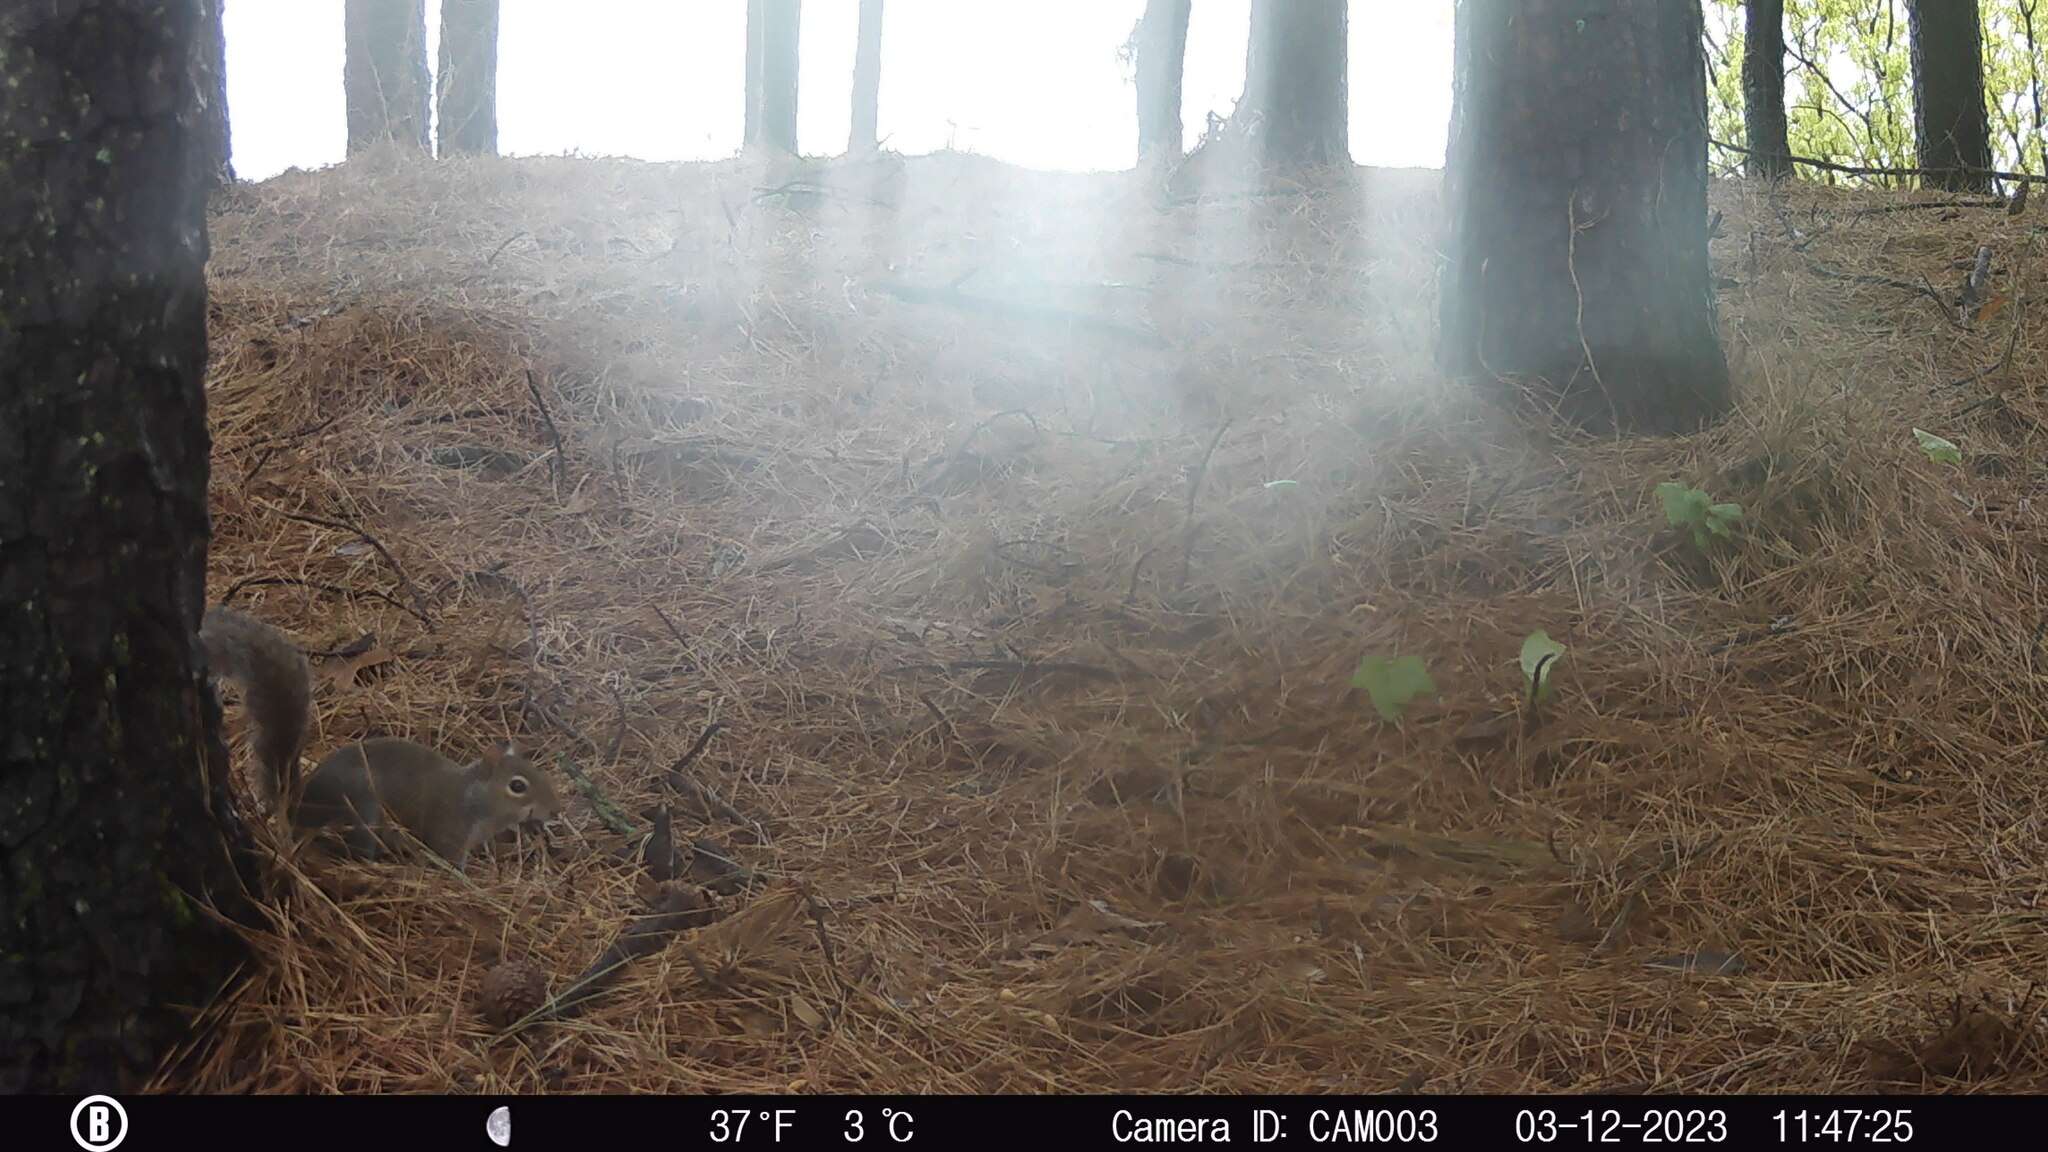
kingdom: Animalia
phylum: Chordata
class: Mammalia
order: Rodentia
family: Sciuridae
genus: Sciurus
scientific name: Sciurus carolinensis
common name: Eastern gray squirrel
